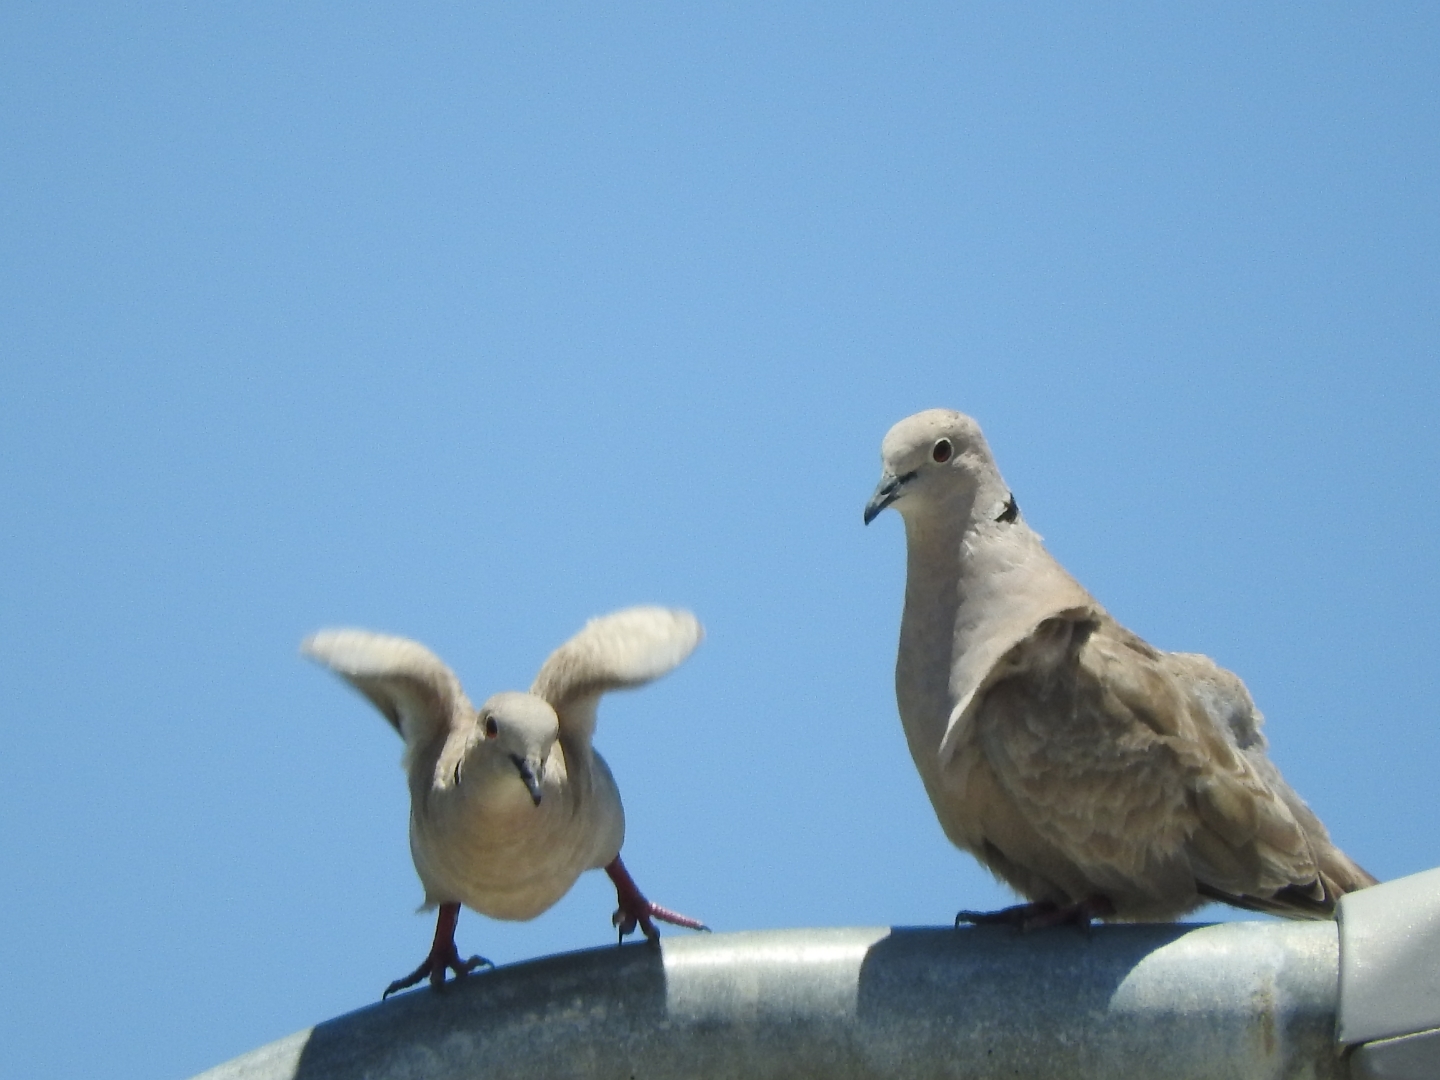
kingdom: Animalia
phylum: Chordata
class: Aves
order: Columbiformes
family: Columbidae
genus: Streptopelia
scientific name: Streptopelia decaocto
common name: Eurasian collared dove
